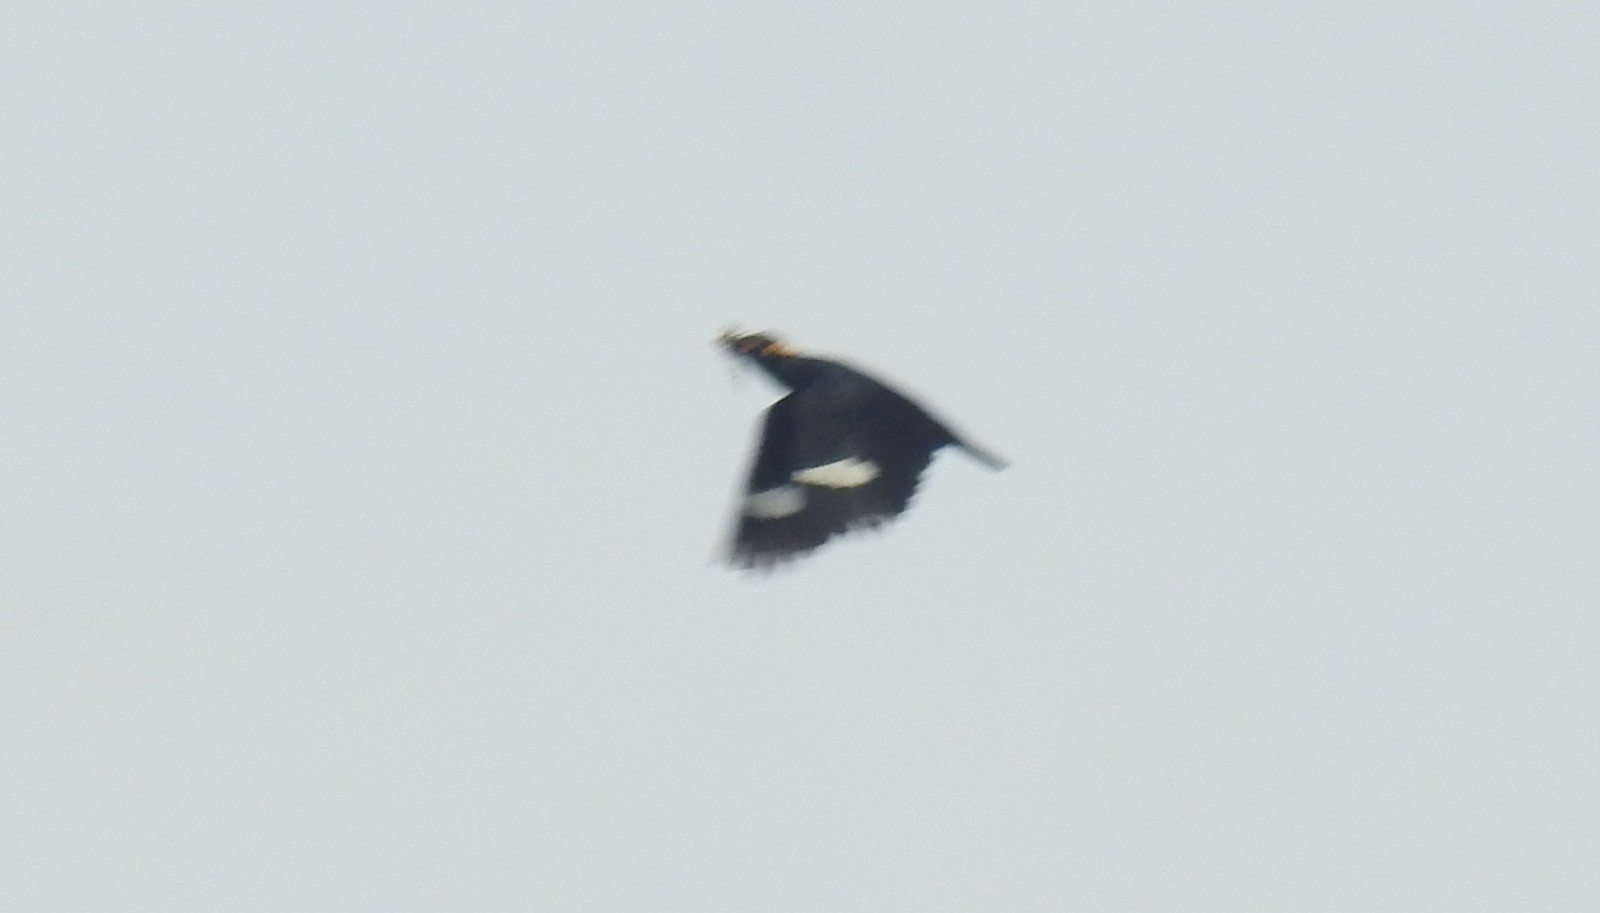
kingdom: Animalia
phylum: Chordata
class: Aves
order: Passeriformes
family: Sturnidae
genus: Gracula
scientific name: Gracula indica
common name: Southern hill myna
